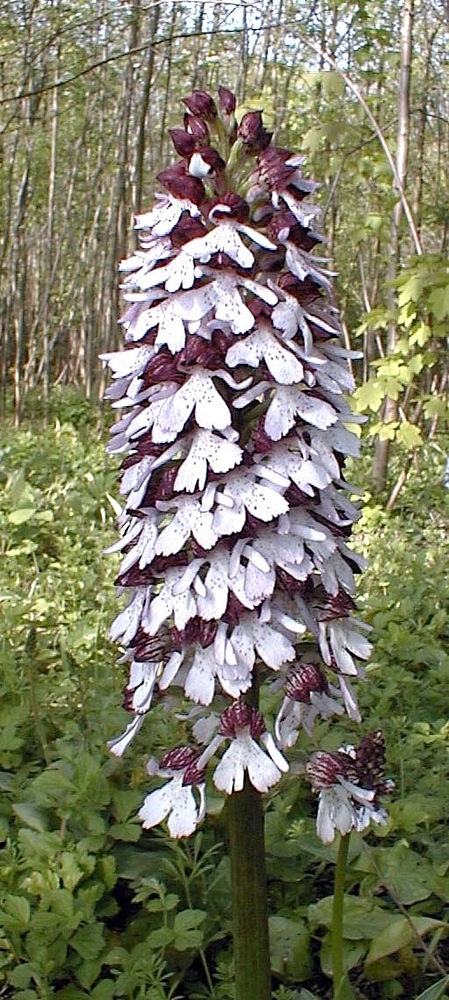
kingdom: Plantae
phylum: Tracheophyta
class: Liliopsida
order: Asparagales
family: Orchidaceae
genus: Orchis
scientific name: Orchis purpurea
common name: Lady orchid
